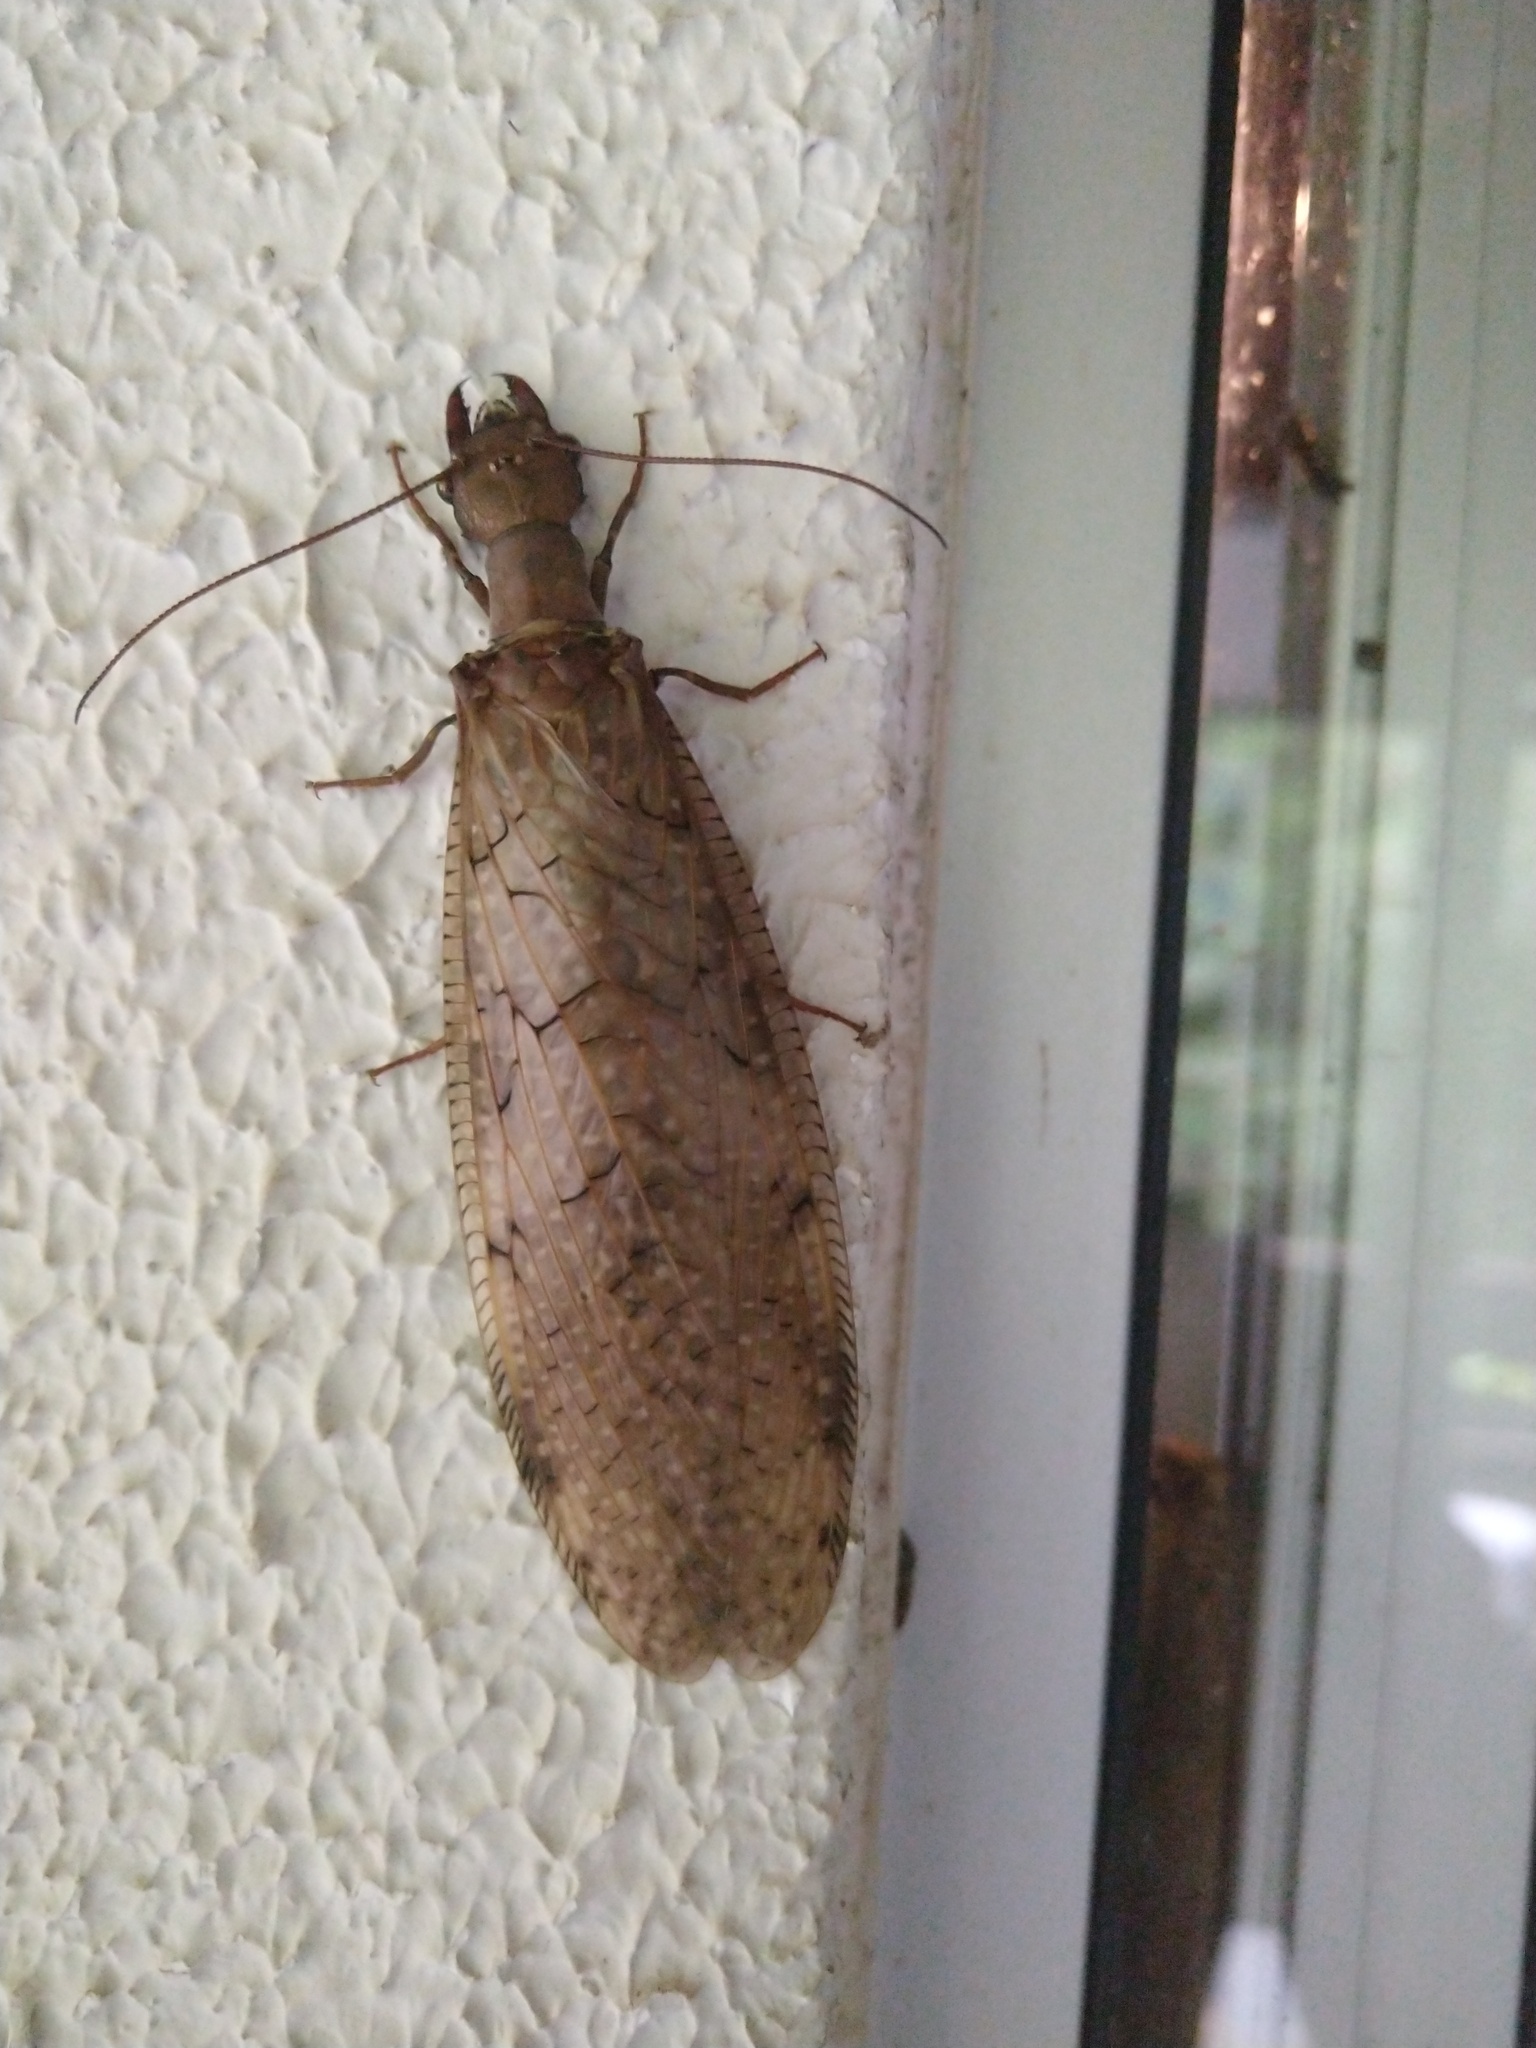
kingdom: Animalia
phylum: Arthropoda
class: Insecta
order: Megaloptera
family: Corydalidae
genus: Corydalus
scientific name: Corydalus australis
